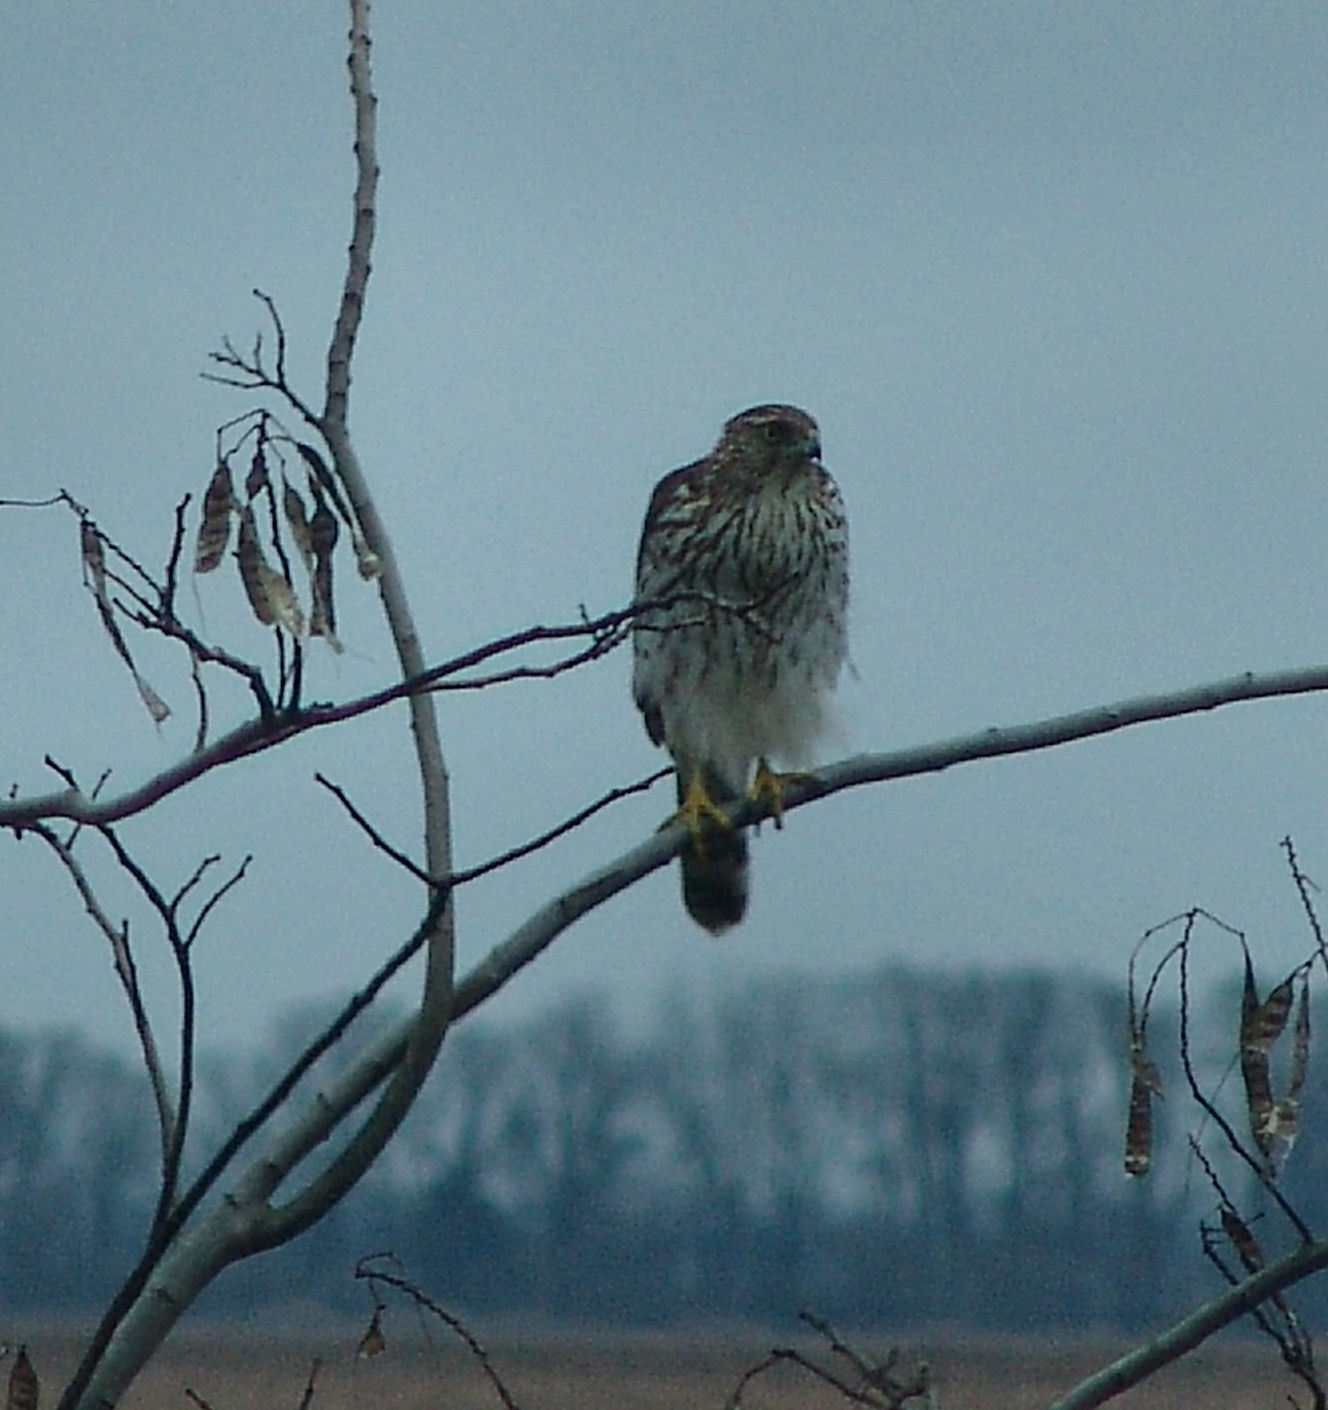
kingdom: Animalia
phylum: Chordata
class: Aves
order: Accipitriformes
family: Accipitridae
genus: Accipiter
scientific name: Accipiter cooperii
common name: Cooper's hawk
